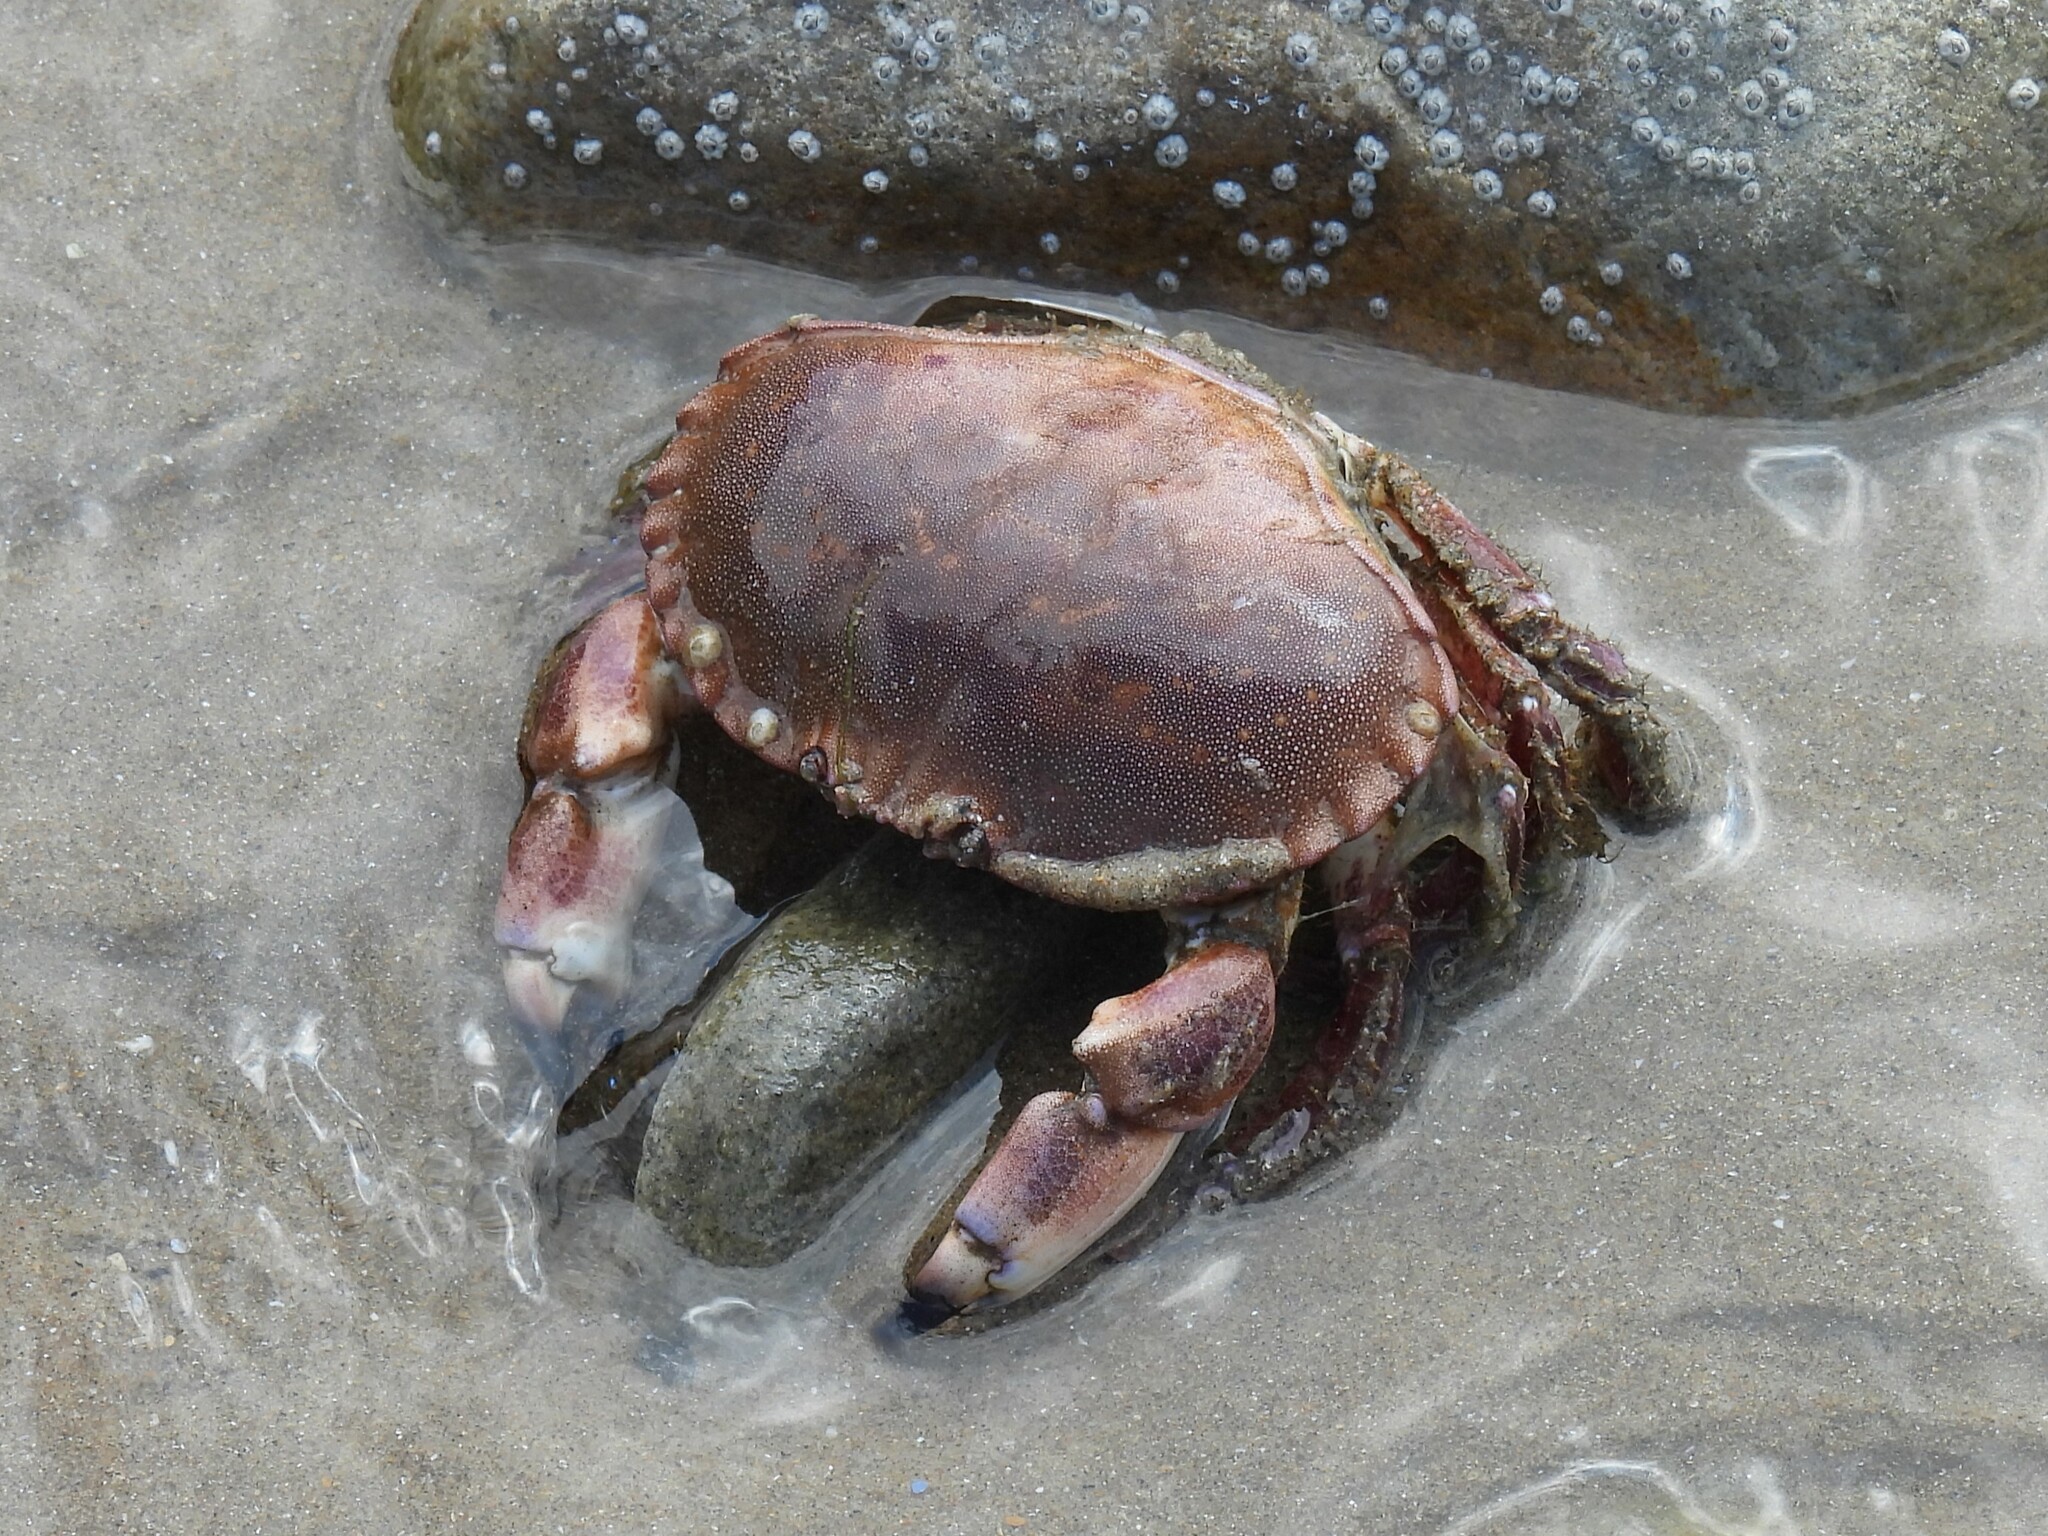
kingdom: Animalia
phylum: Arthropoda
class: Malacostraca
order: Decapoda
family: Cancridae
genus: Cancer
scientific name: Cancer pagurus
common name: Edible crab
